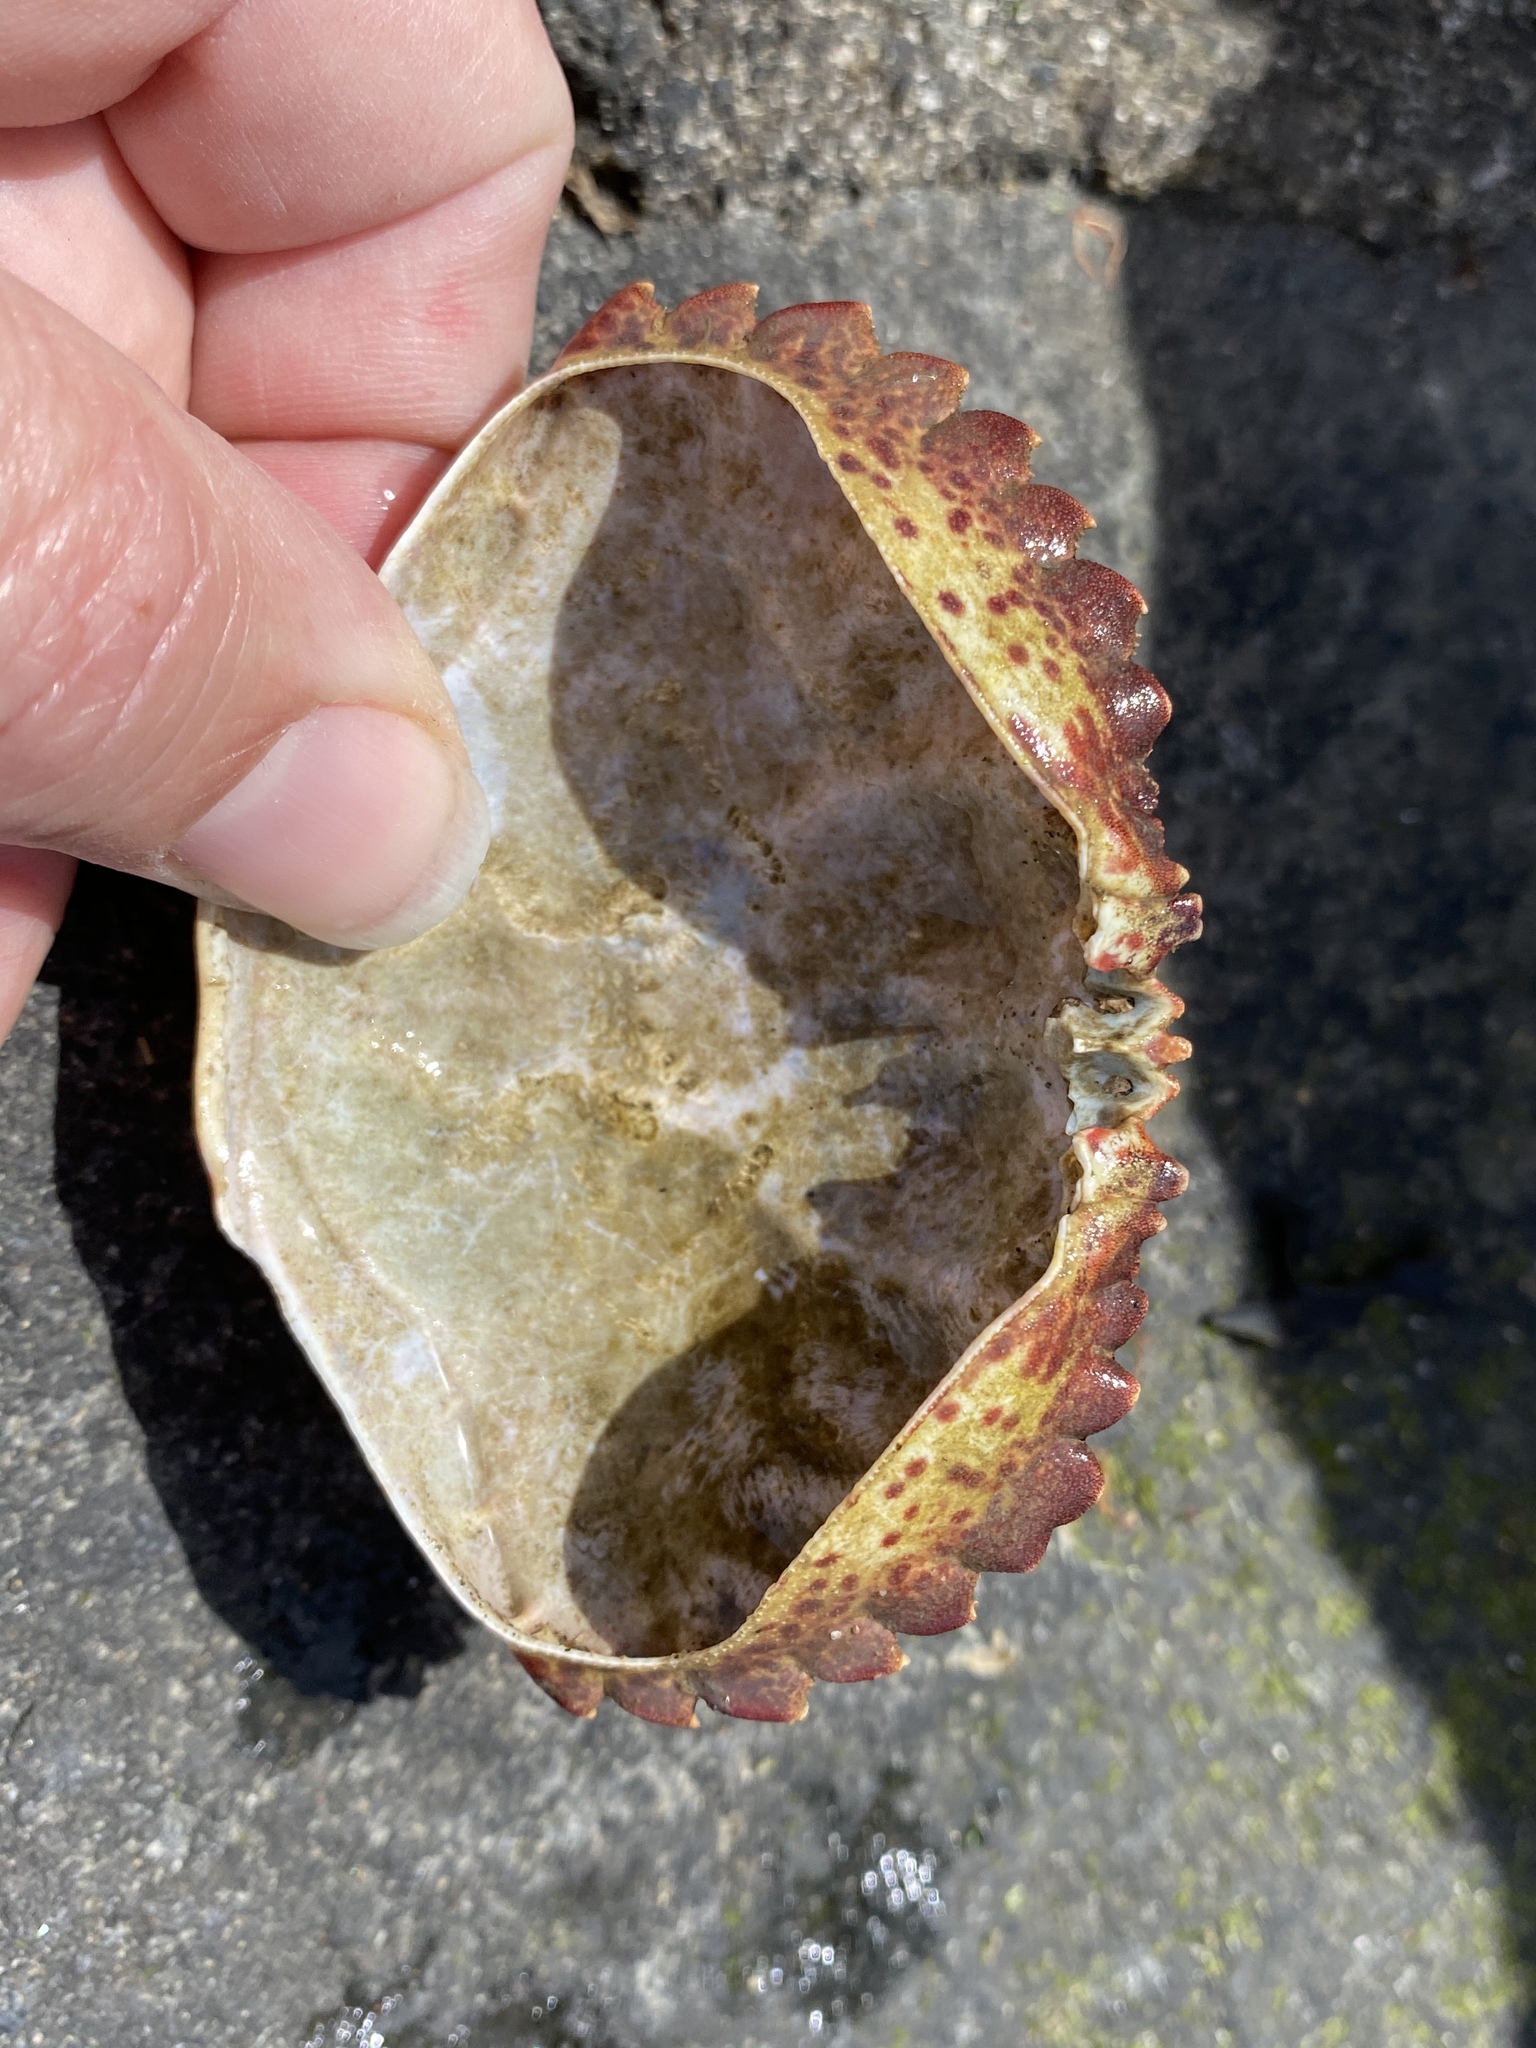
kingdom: Animalia
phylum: Arthropoda
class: Malacostraca
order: Decapoda
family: Cancridae
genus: Romaleon
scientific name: Romaleon antennarium
